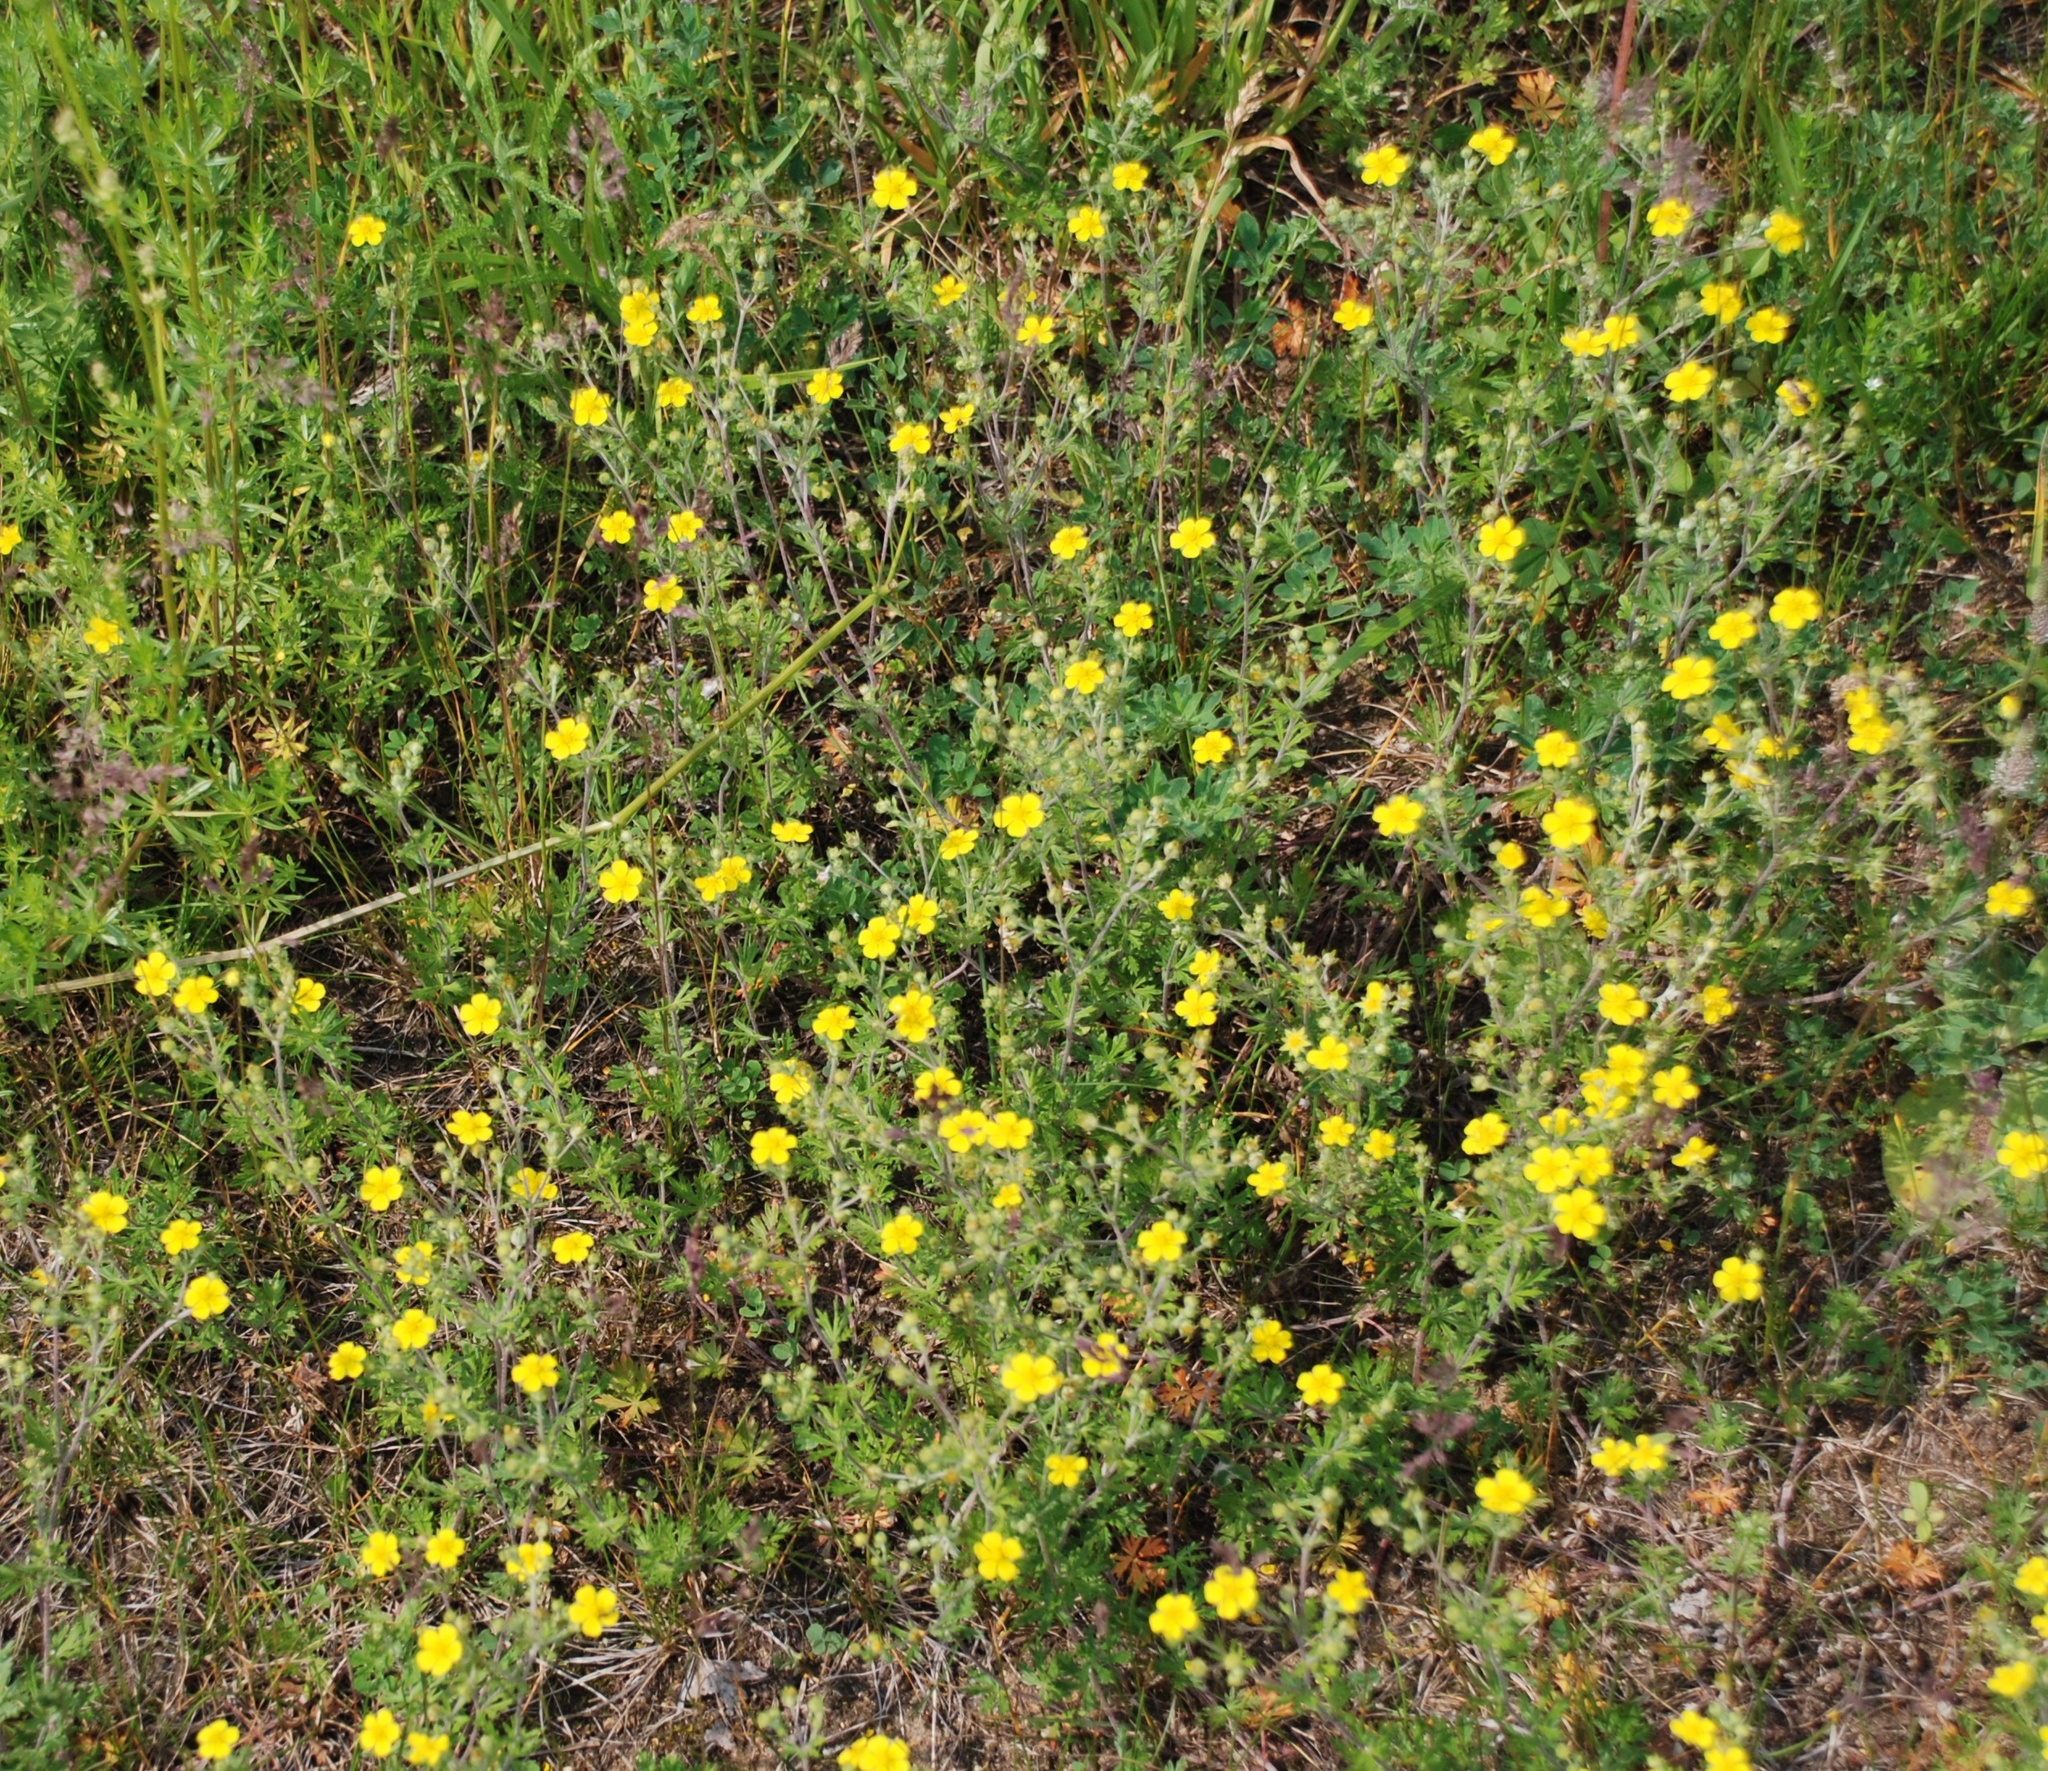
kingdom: Plantae
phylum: Tracheophyta
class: Magnoliopsida
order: Rosales
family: Rosaceae
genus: Potentilla
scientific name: Potentilla argentea
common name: Hoary cinquefoil
